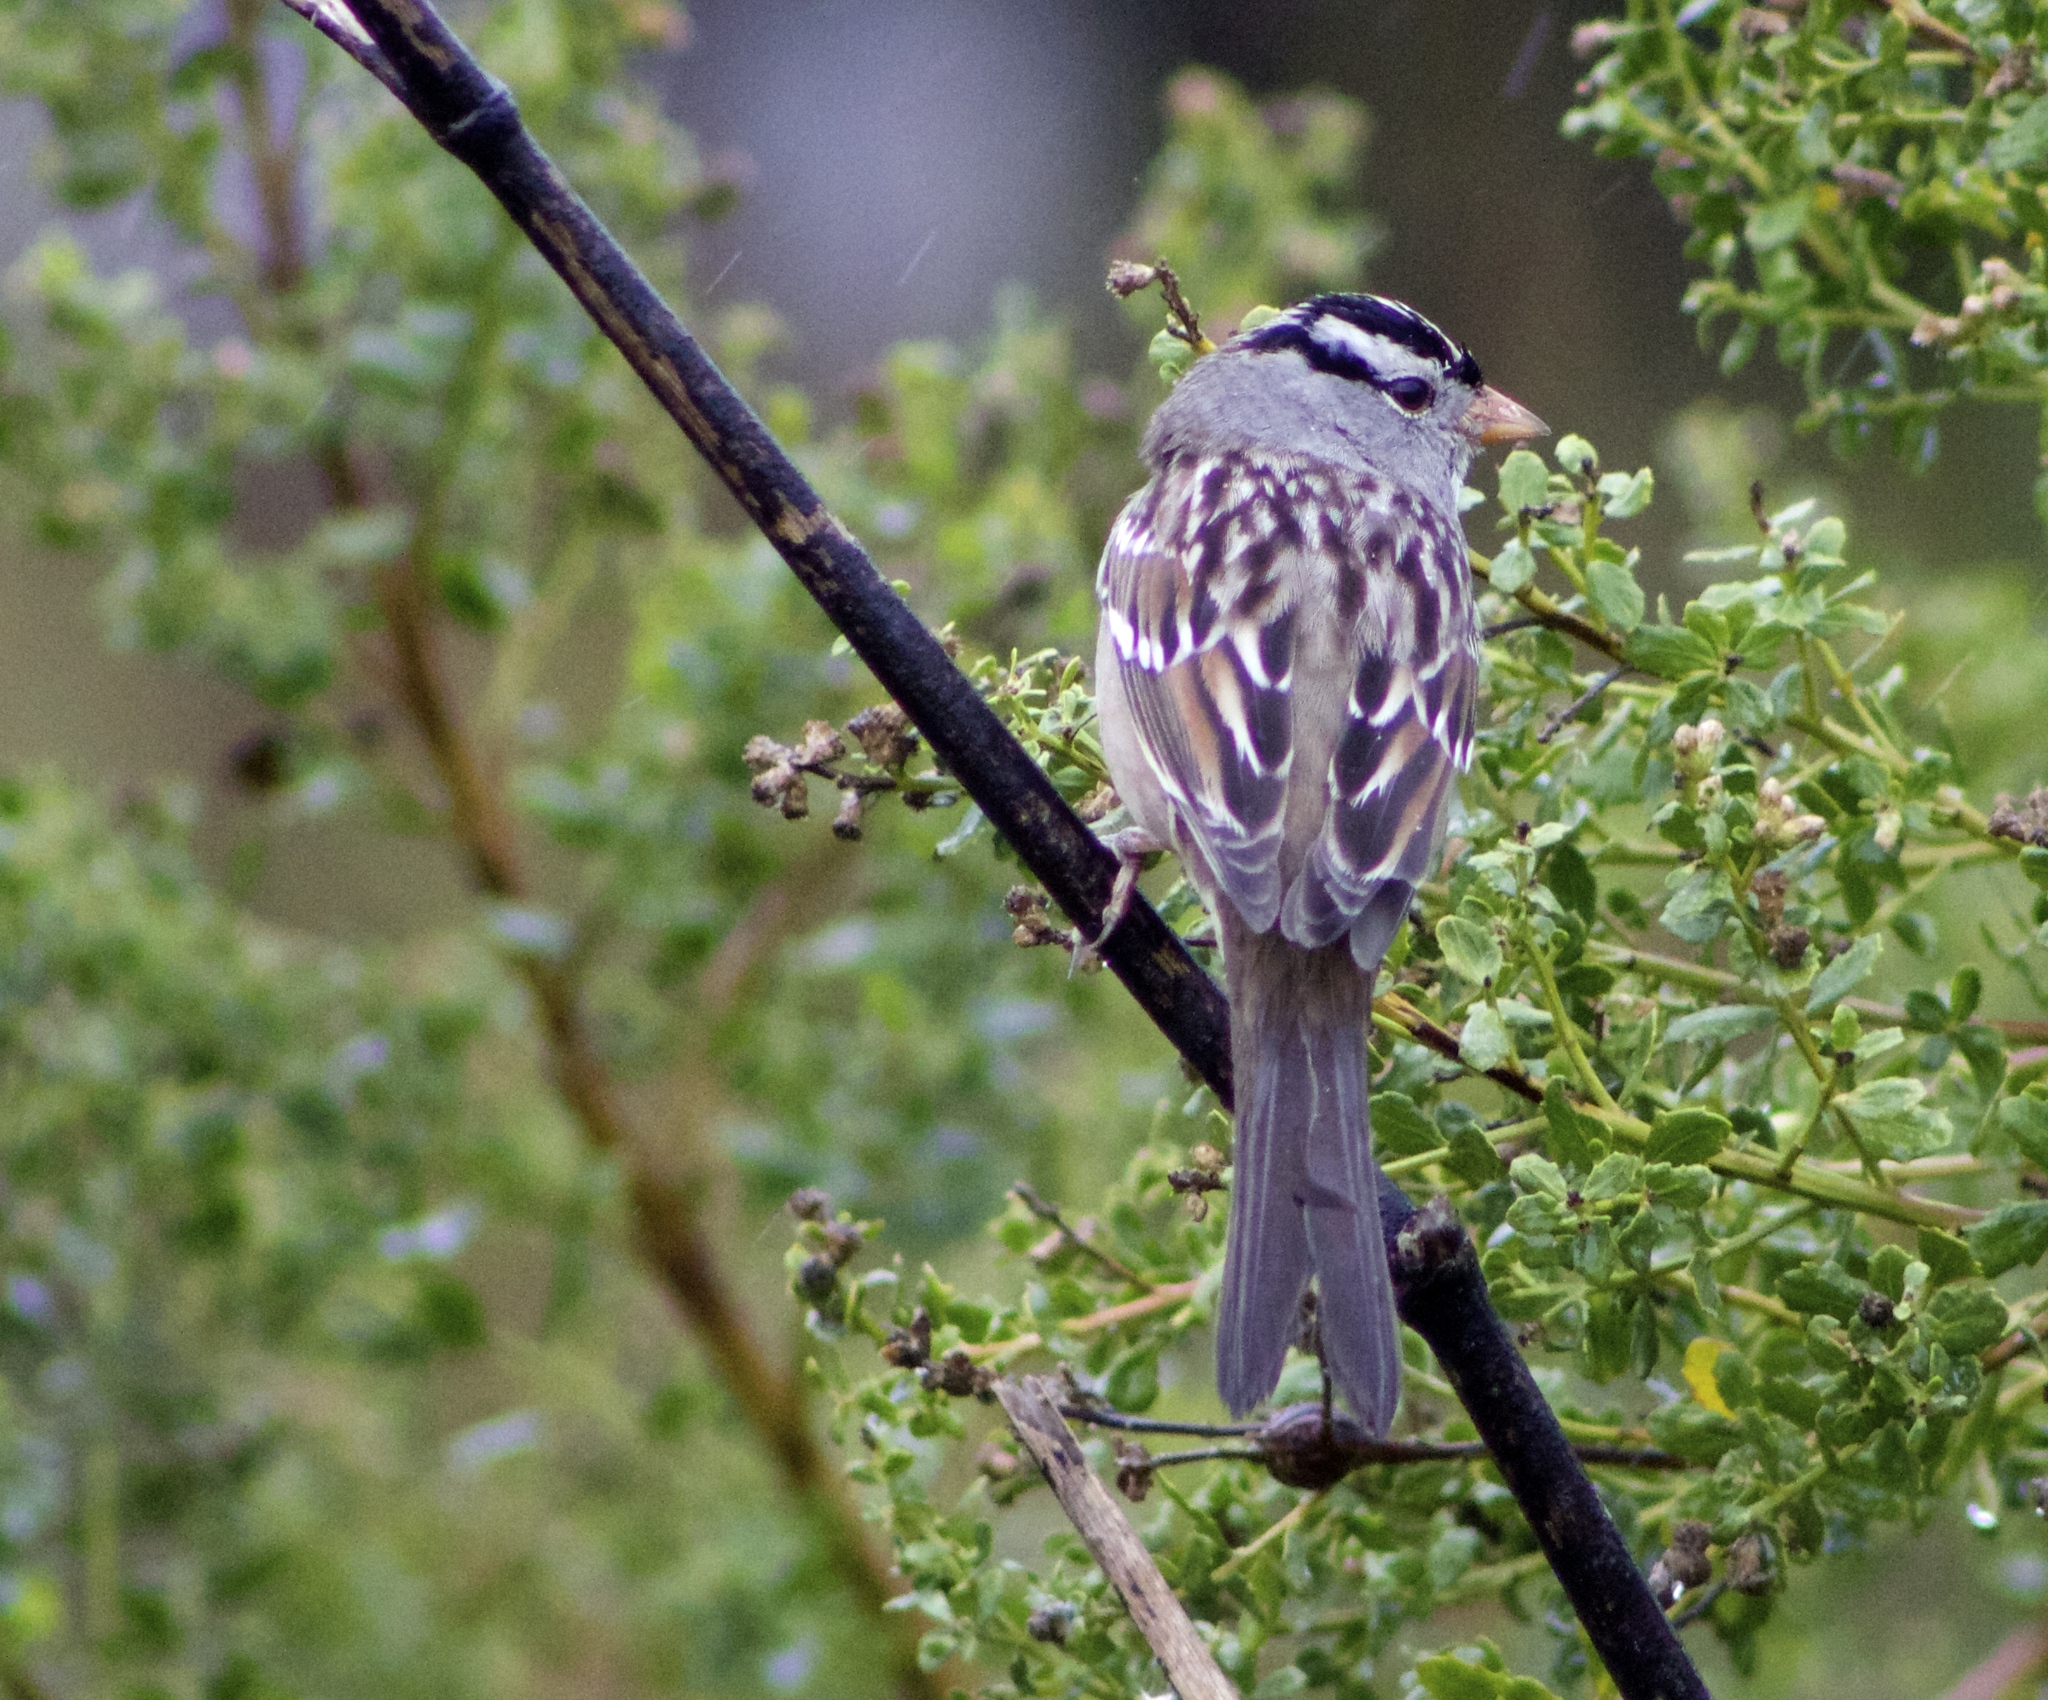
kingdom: Animalia
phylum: Chordata
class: Aves
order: Passeriformes
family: Passerellidae
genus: Zonotrichia
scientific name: Zonotrichia leucophrys
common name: White-crowned sparrow
